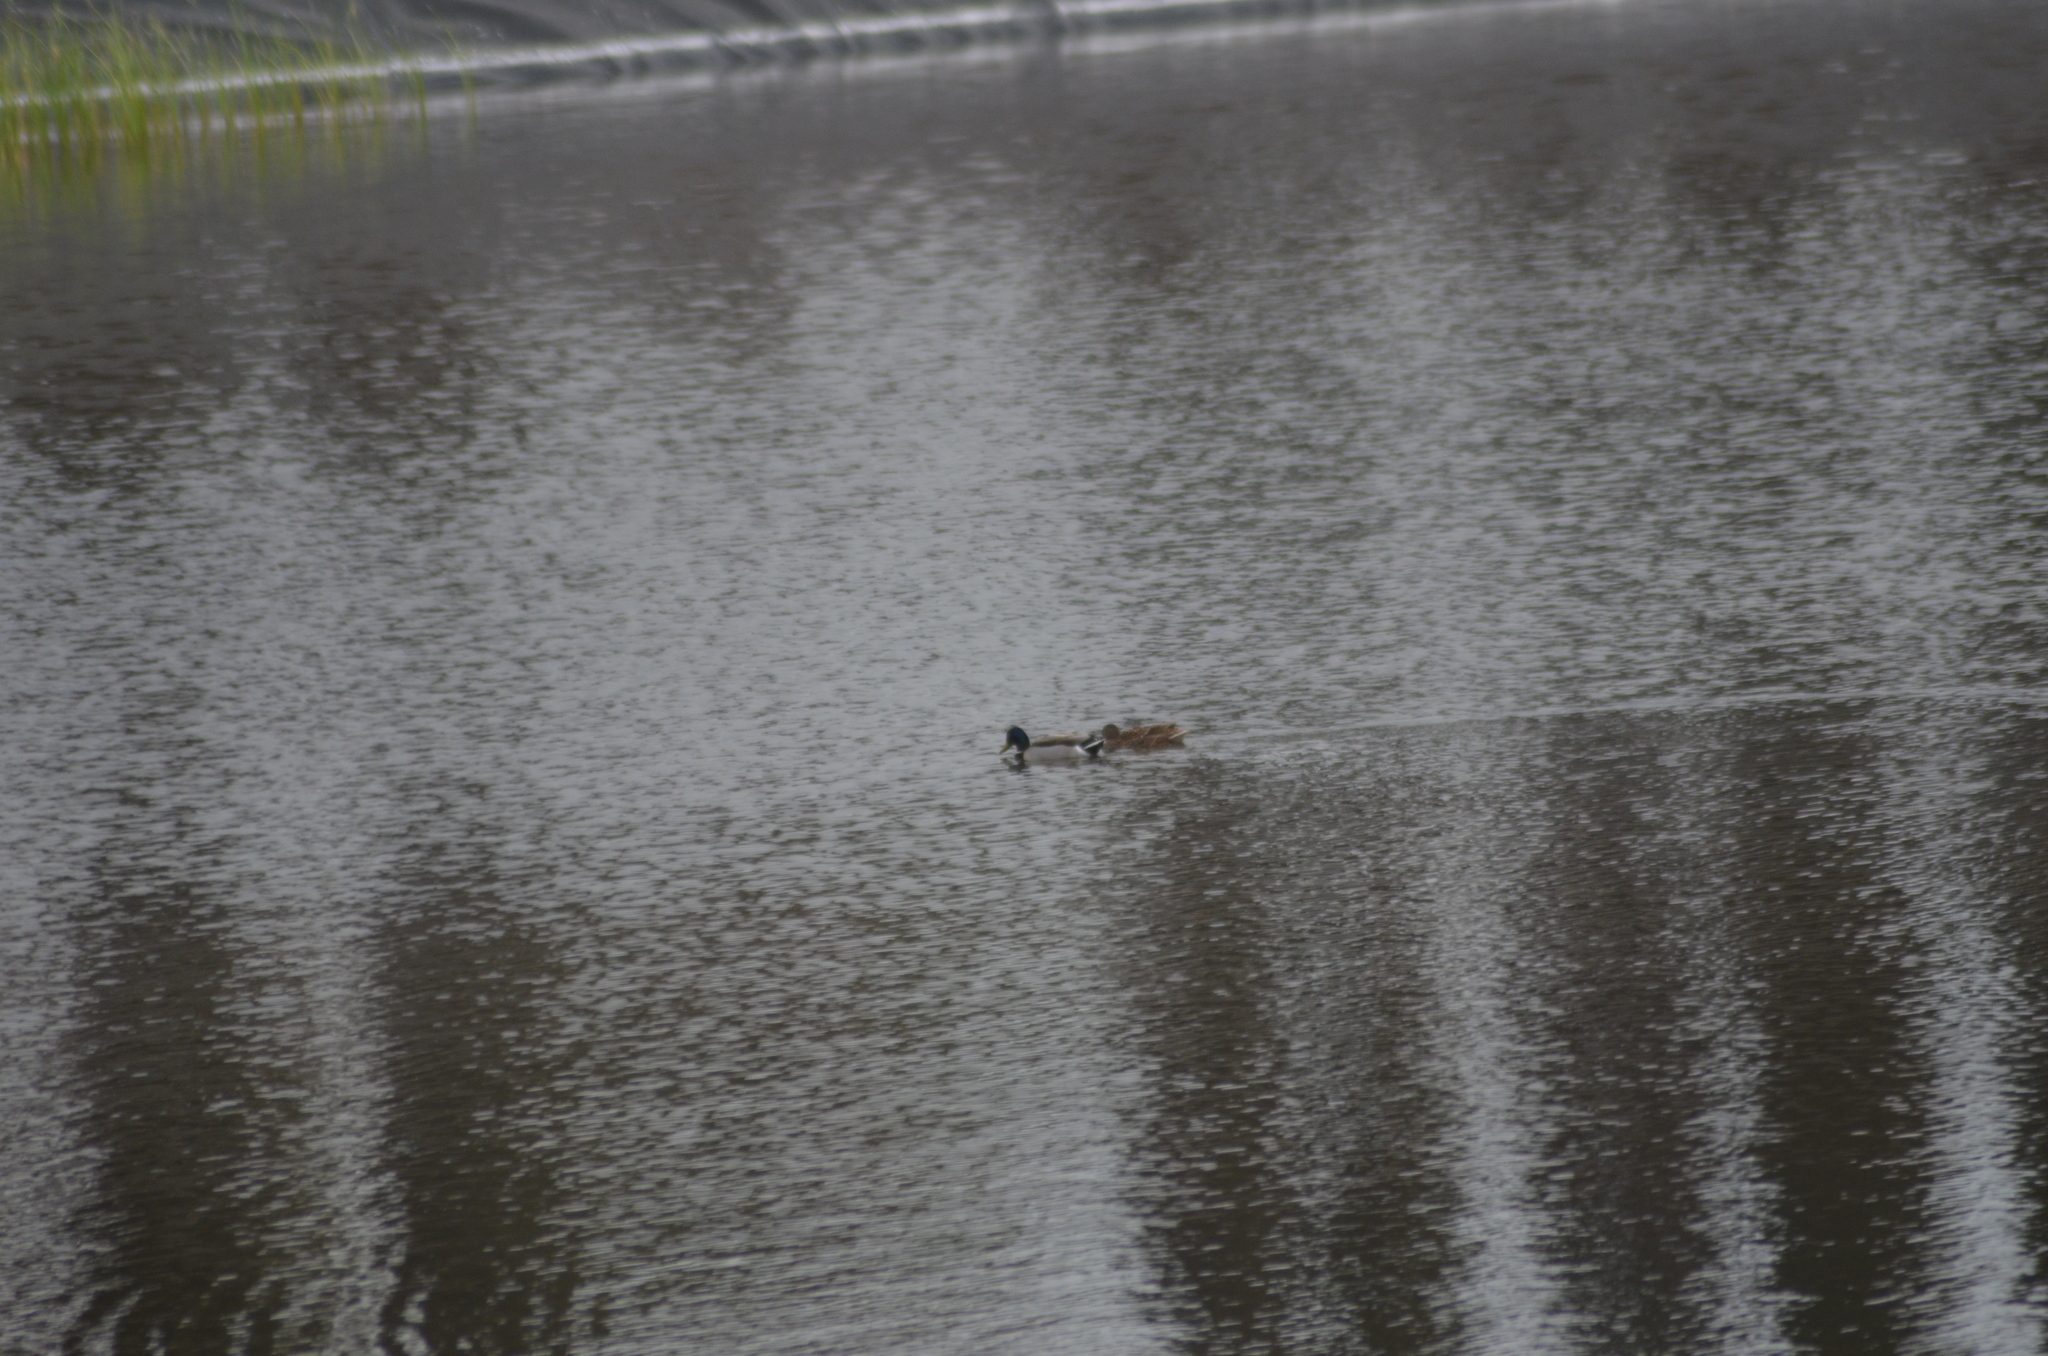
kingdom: Animalia
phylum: Chordata
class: Aves
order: Anseriformes
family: Anatidae
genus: Anas
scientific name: Anas platyrhynchos
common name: Mallard
